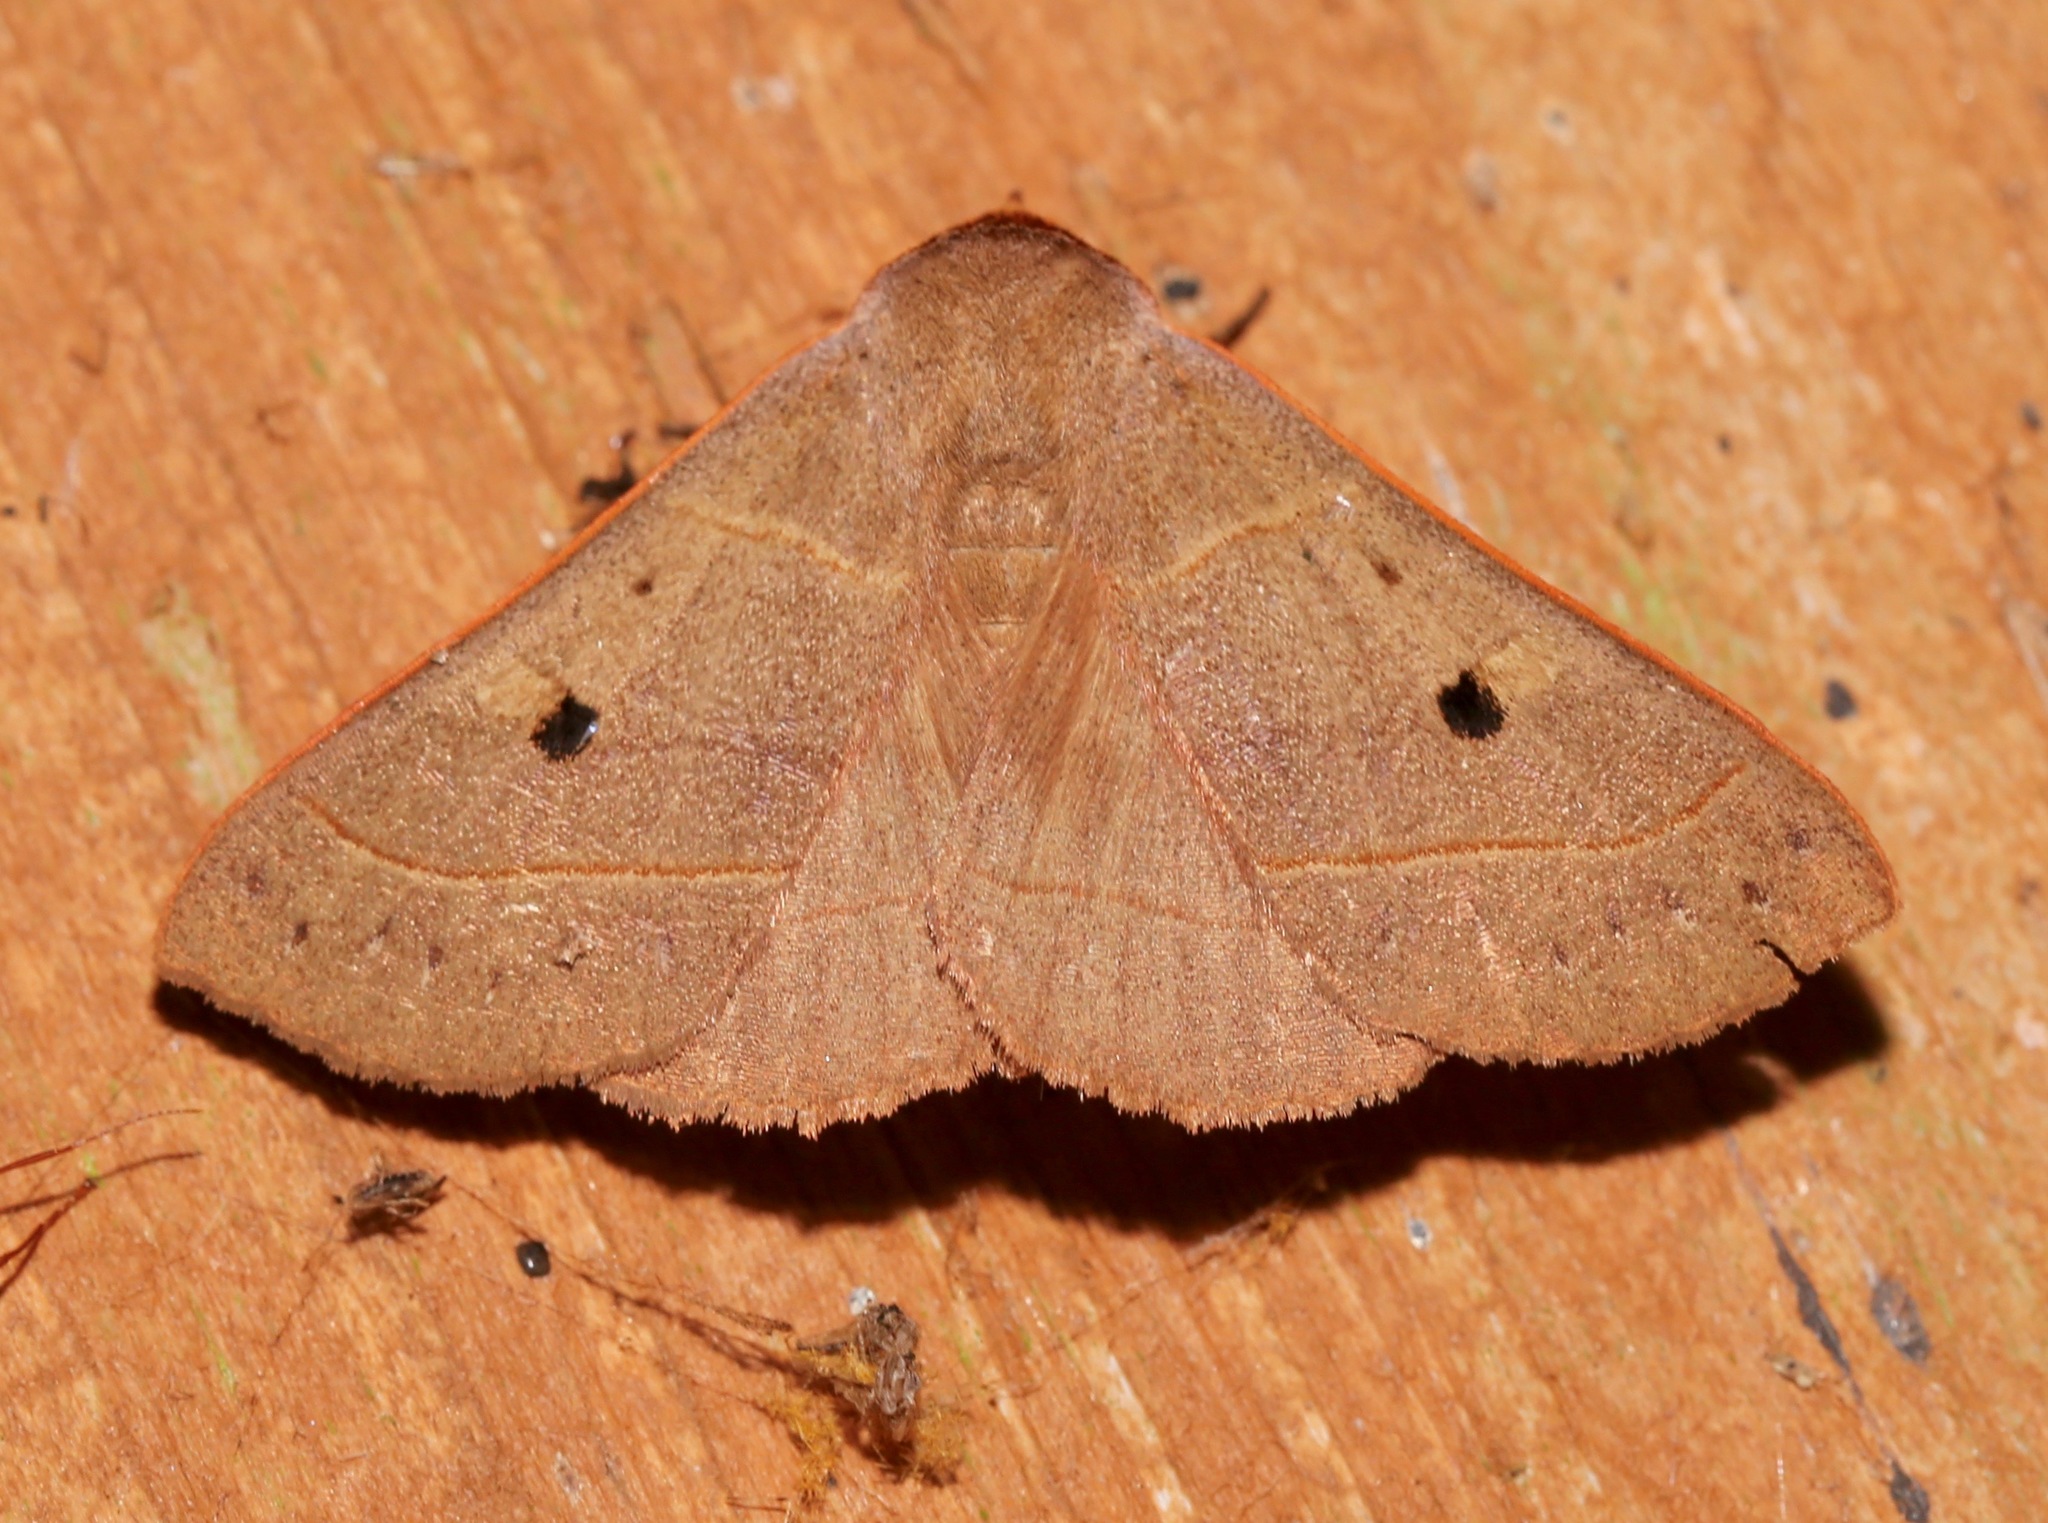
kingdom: Animalia
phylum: Arthropoda
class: Insecta
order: Lepidoptera
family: Erebidae
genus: Panopoda
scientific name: Panopoda rufimargo
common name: Red-lined panopoda moth
